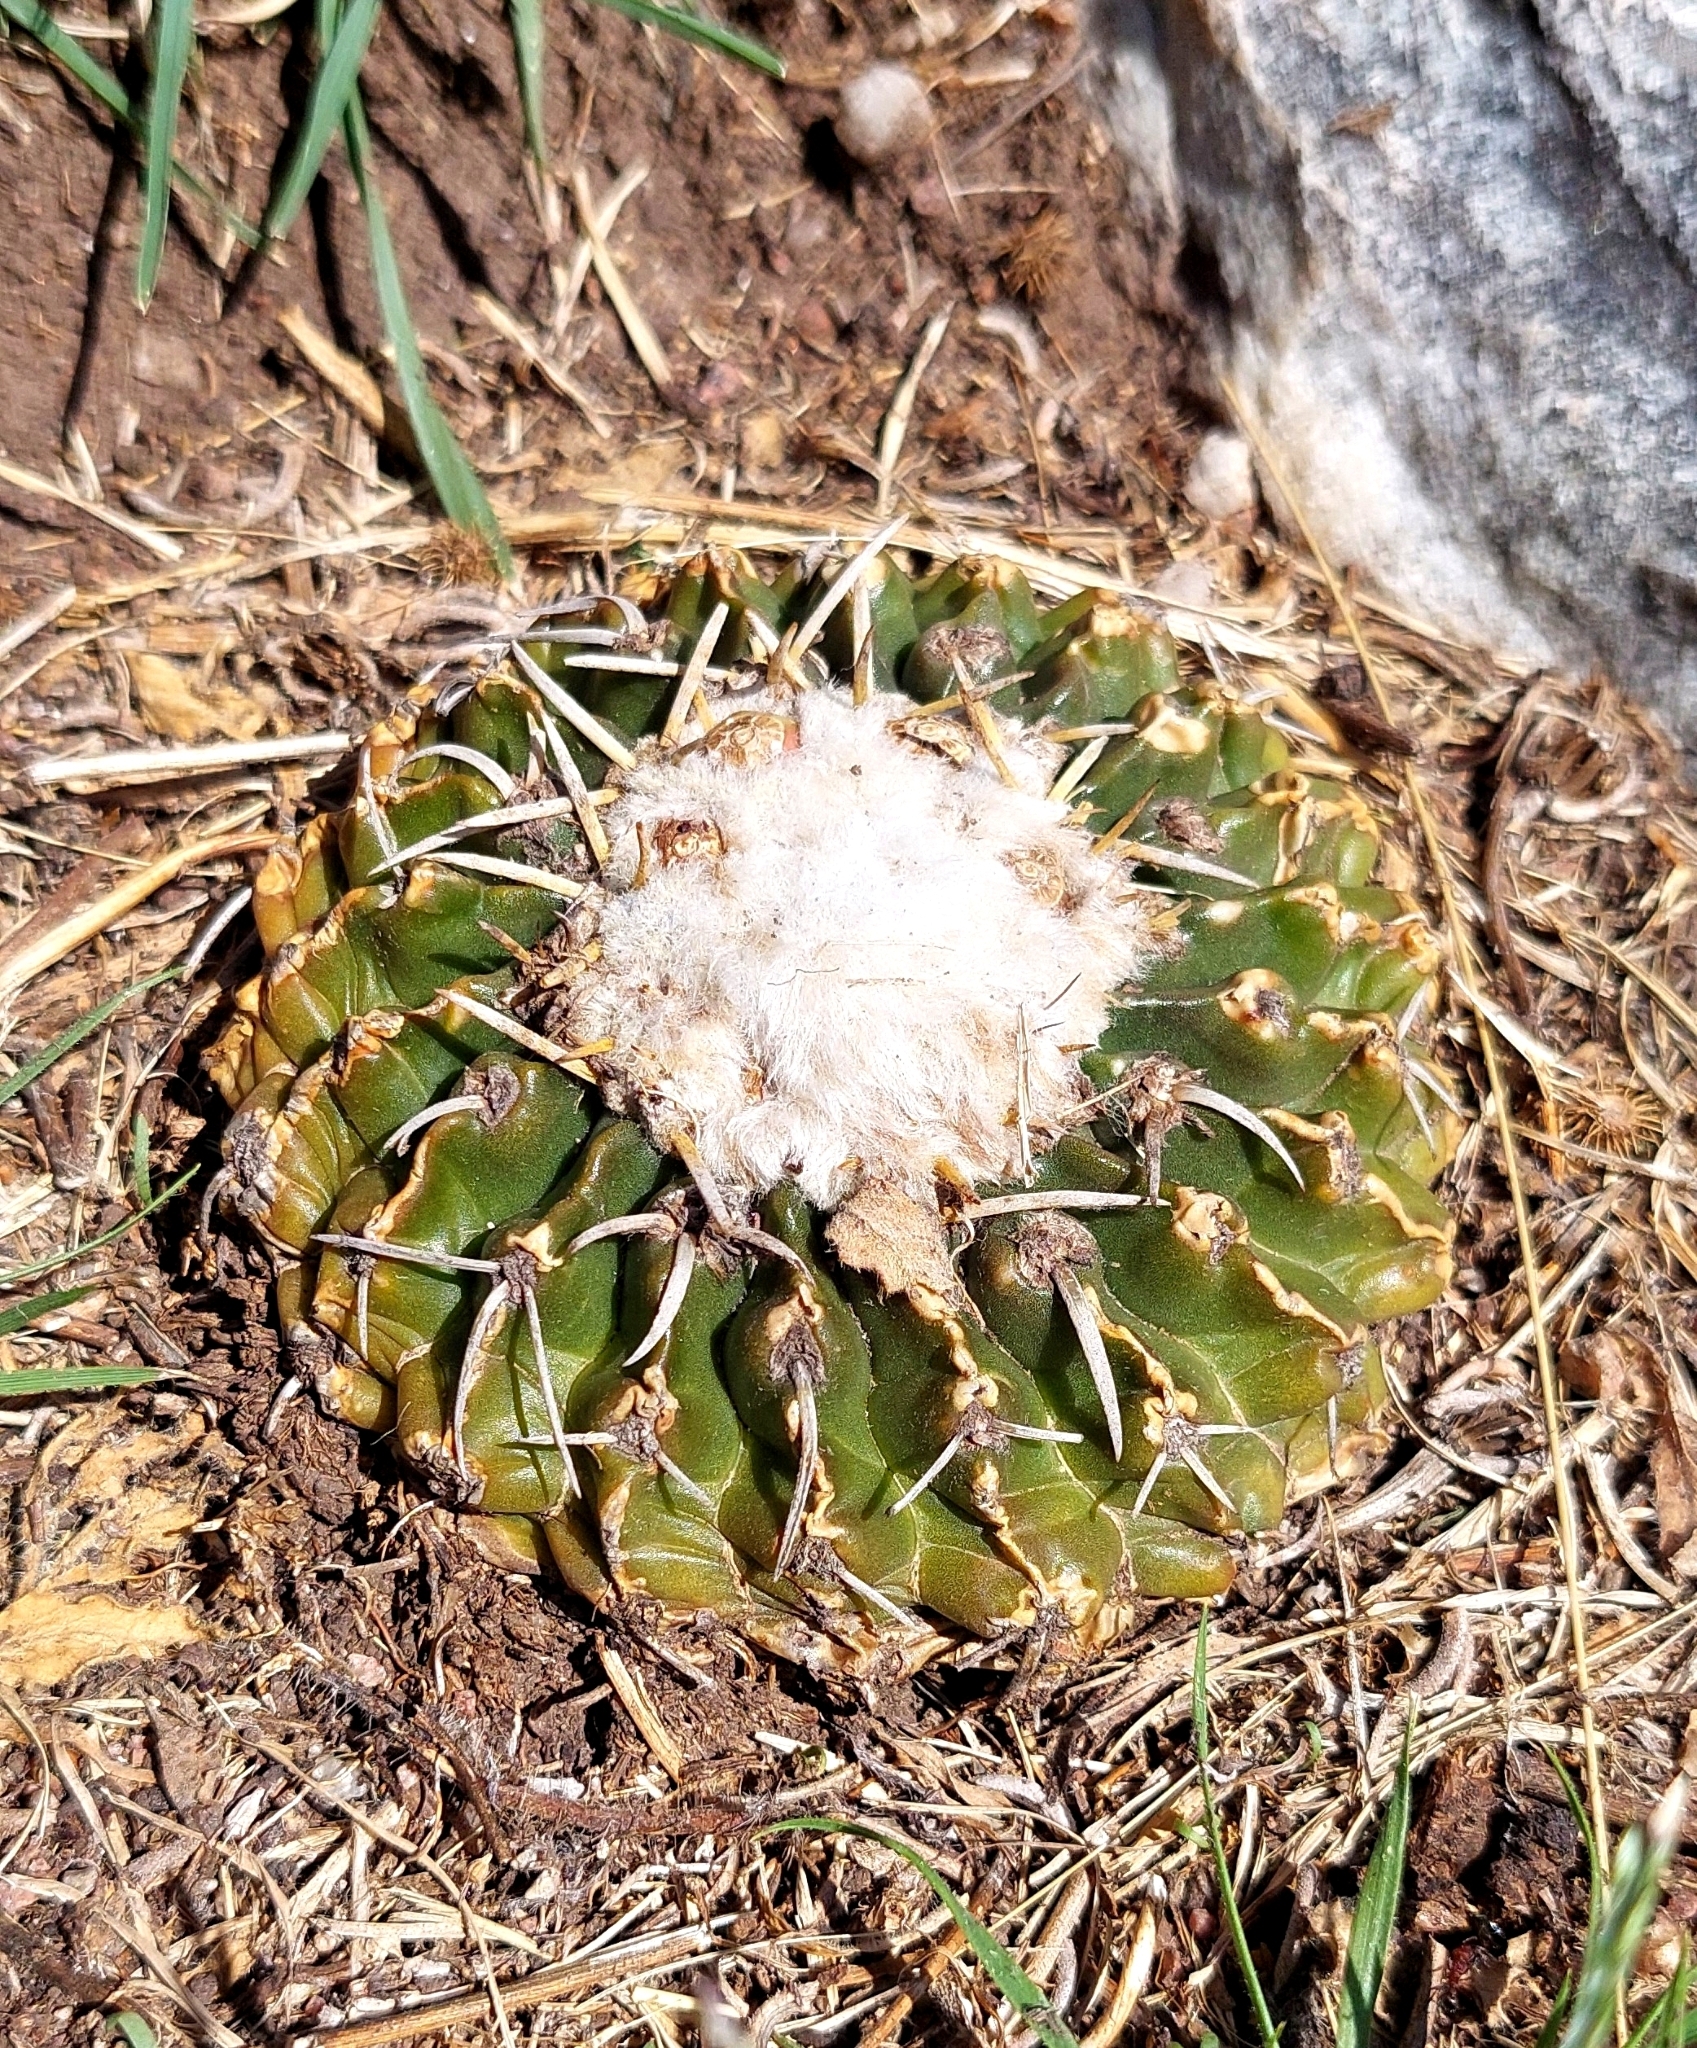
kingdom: Plantae
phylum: Tracheophyta
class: Magnoliopsida
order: Caryophyllales
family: Cactaceae
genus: Parodia
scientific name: Parodia erinacea
